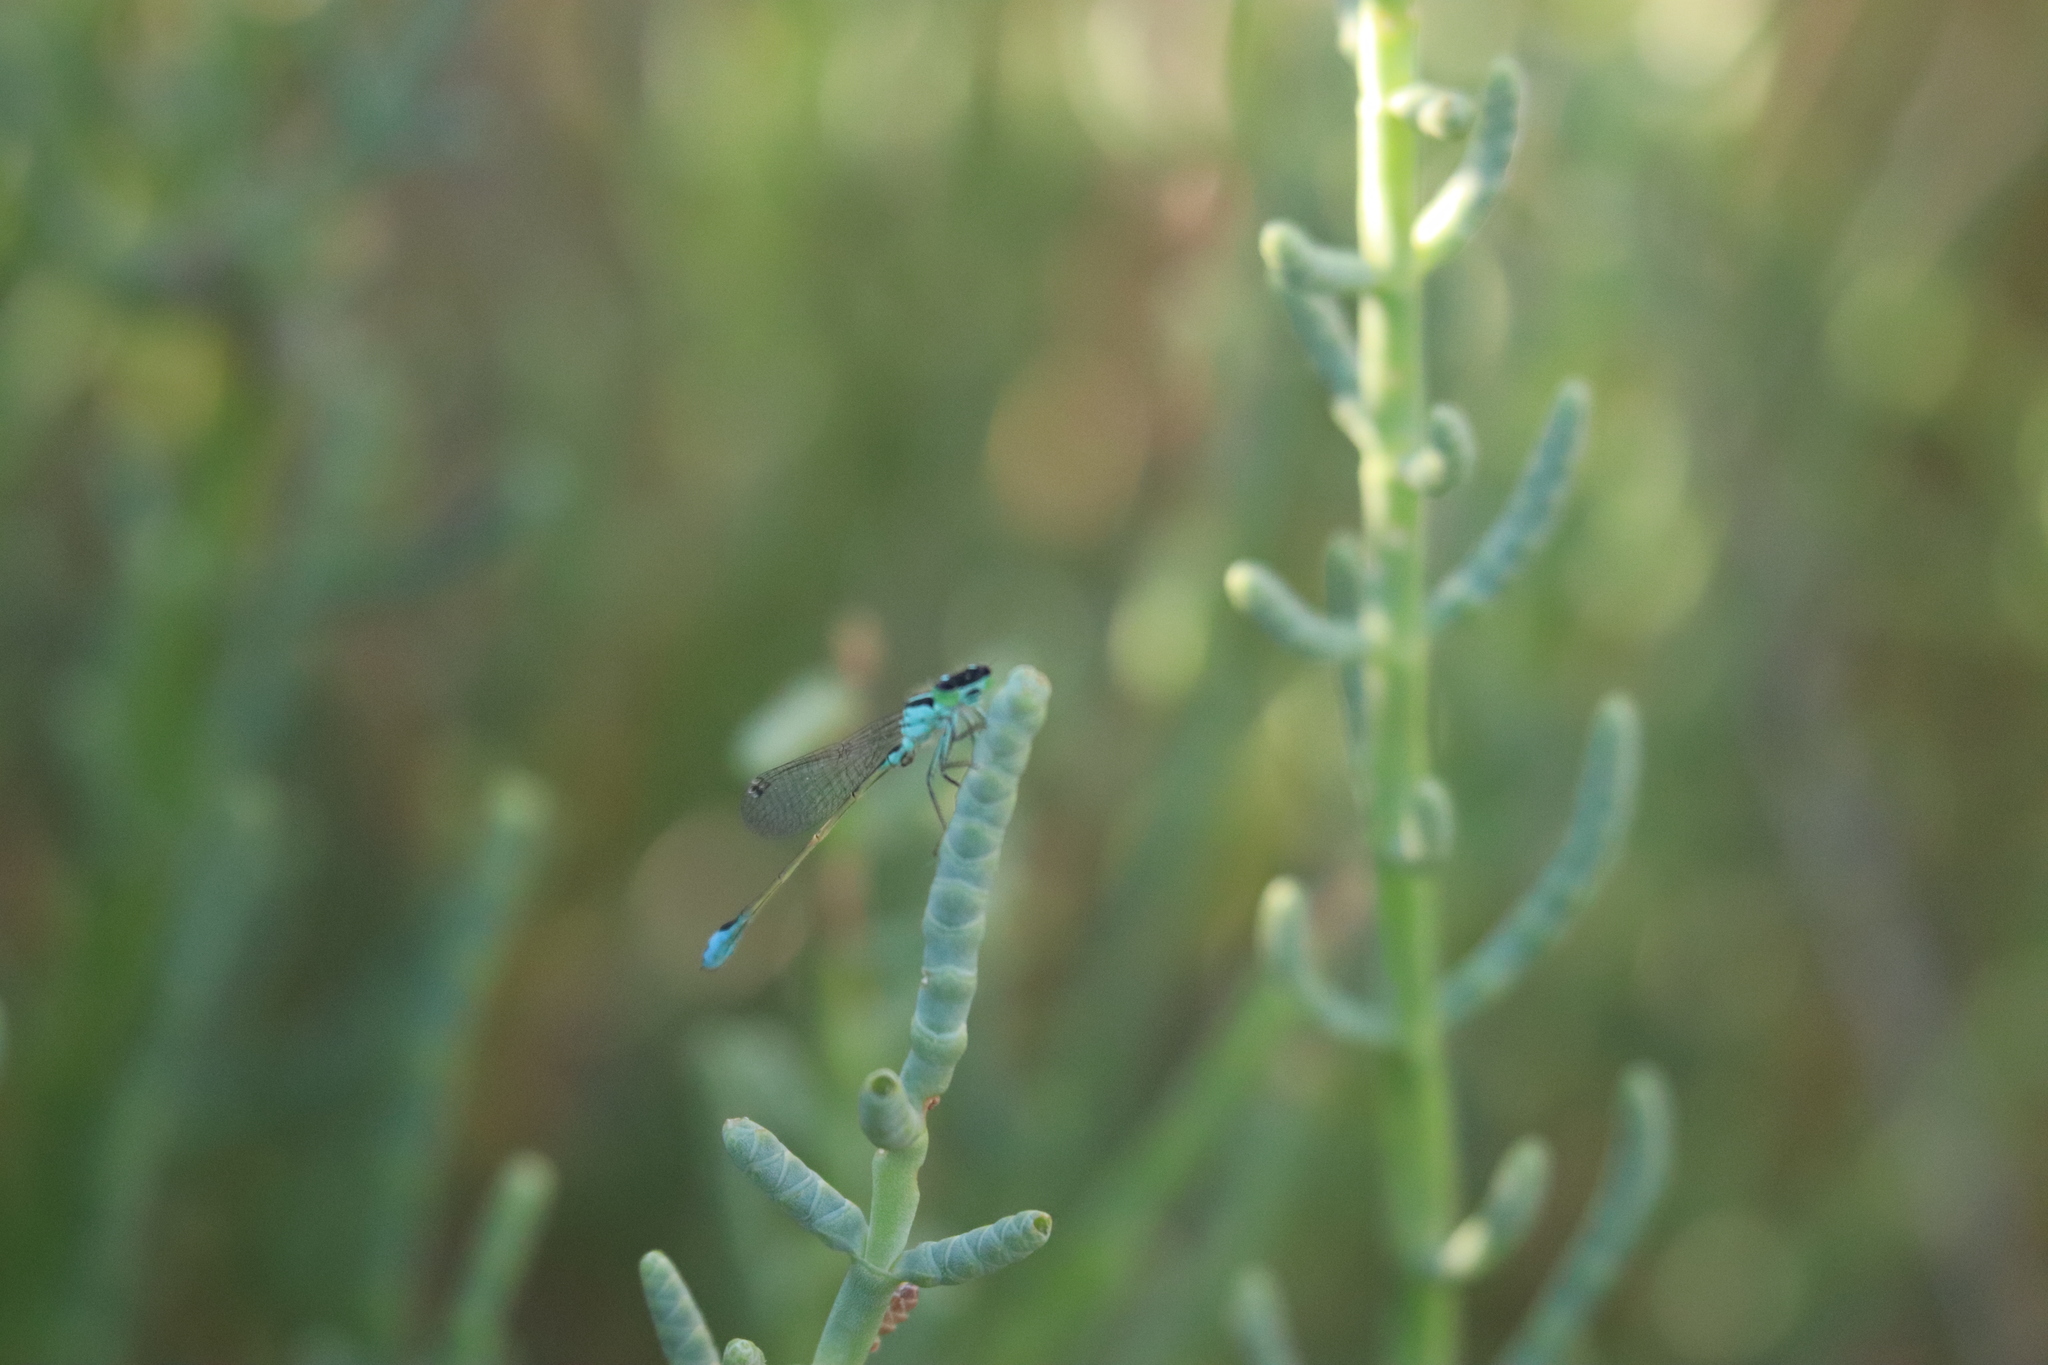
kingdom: Animalia
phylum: Arthropoda
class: Insecta
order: Odonata
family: Coenagrionidae
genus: Ischnura
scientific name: Ischnura elegans
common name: Blue-tailed damselfly
